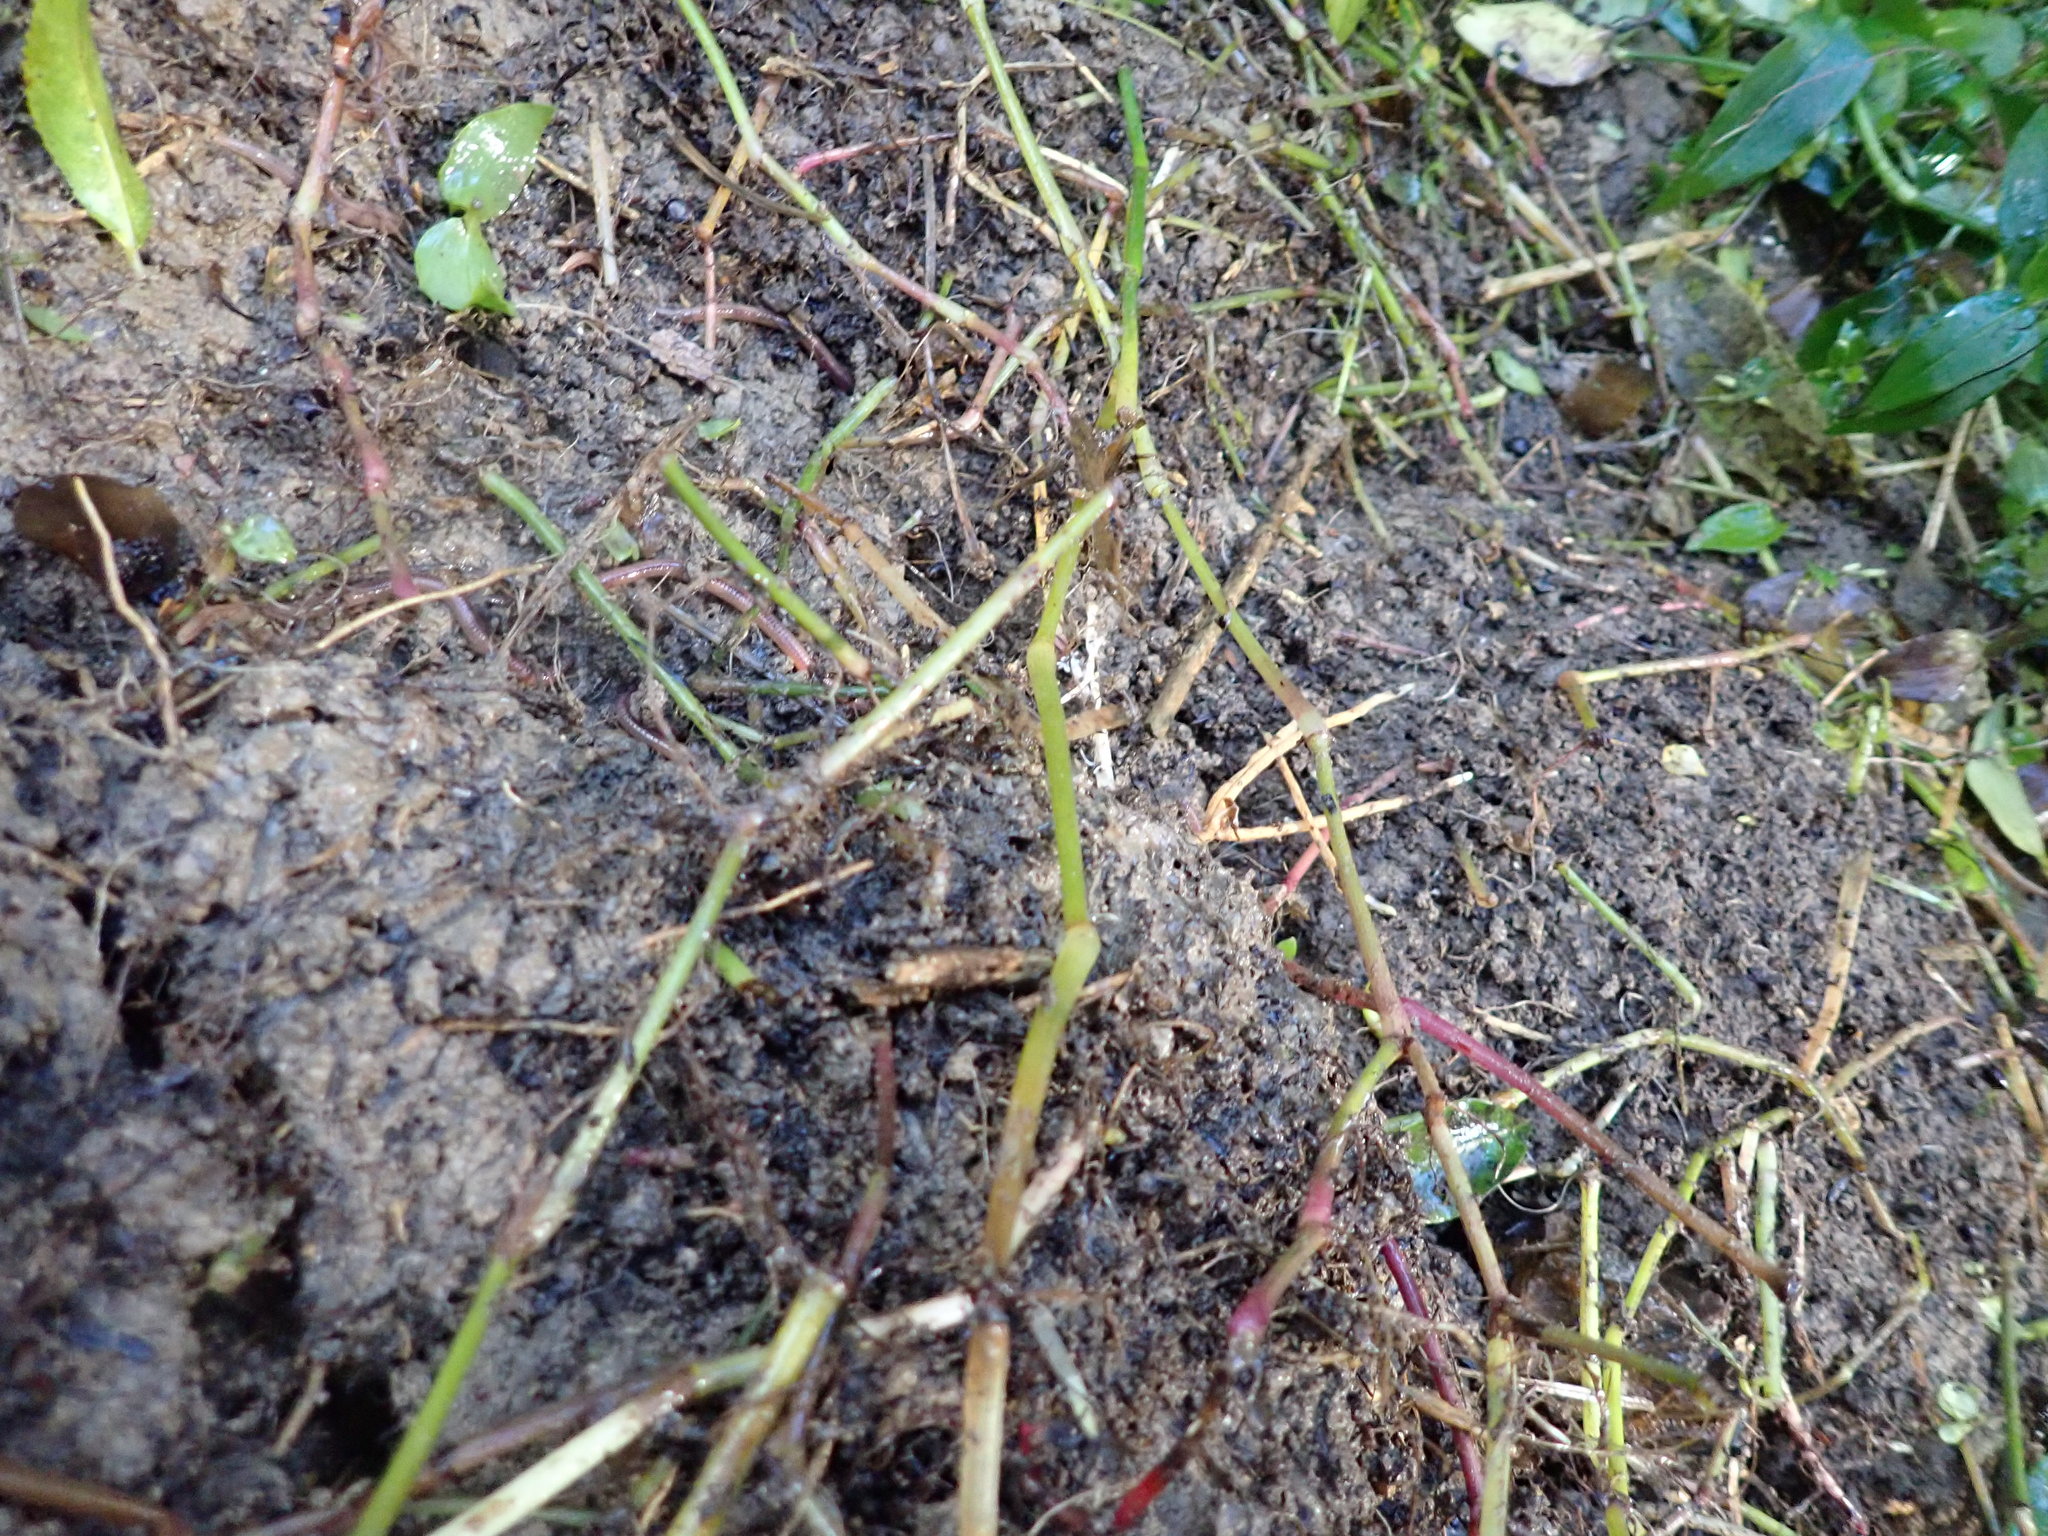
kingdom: Plantae
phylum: Tracheophyta
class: Liliopsida
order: Commelinales
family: Commelinaceae
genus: Tradescantia
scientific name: Tradescantia fluminensis
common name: Wandering-jew
